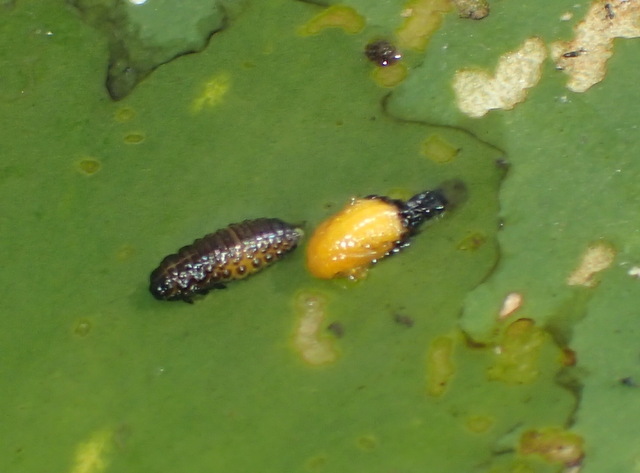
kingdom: Animalia
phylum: Arthropoda
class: Insecta
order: Coleoptera
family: Chrysomelidae
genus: Galerucella
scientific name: Galerucella nymphaeae
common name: Leaf beetle
